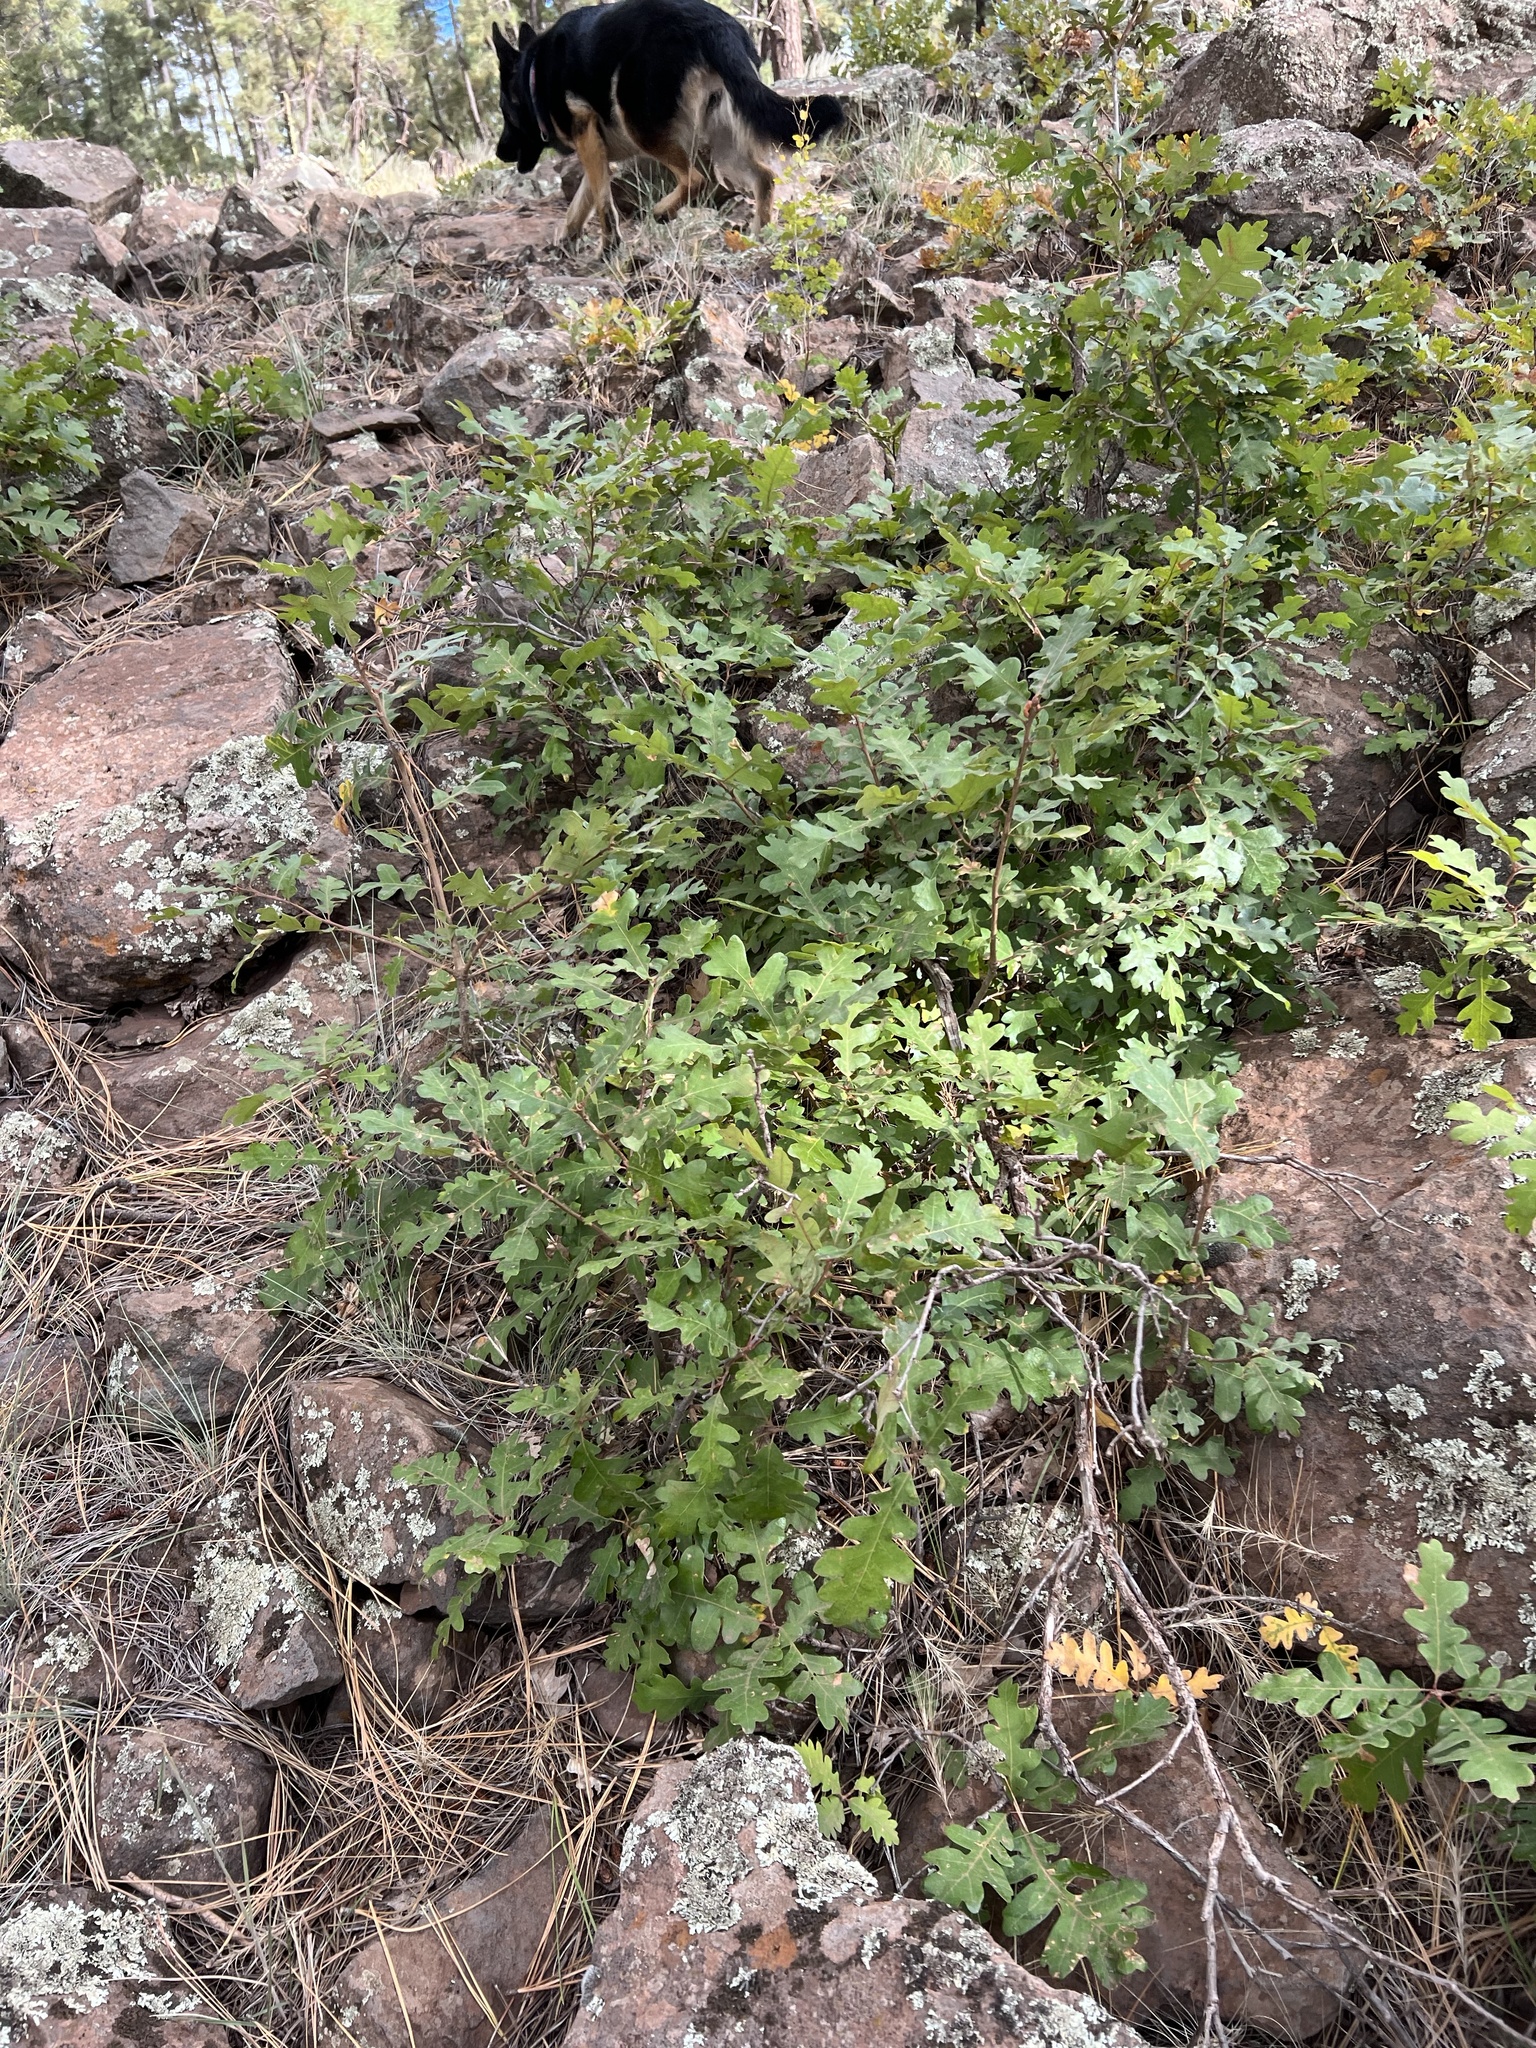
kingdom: Plantae
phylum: Tracheophyta
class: Magnoliopsida
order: Fagales
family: Fagaceae
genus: Quercus
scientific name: Quercus gambelii
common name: Gambel oak
